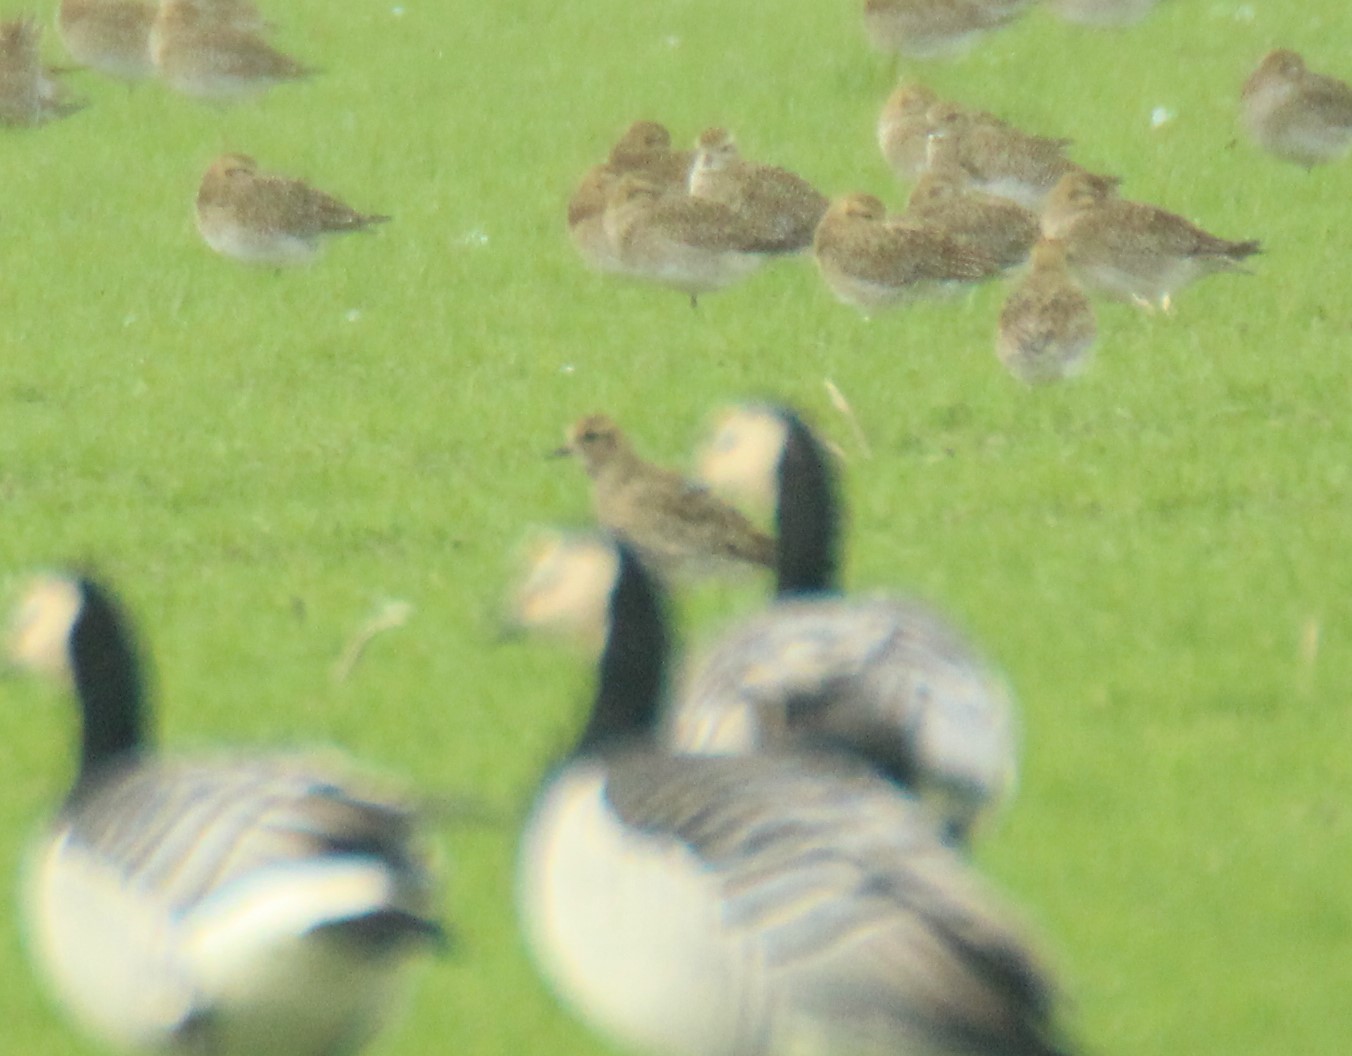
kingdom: Animalia
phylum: Chordata
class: Aves
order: Charadriiformes
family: Charadriidae
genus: Pluvialis
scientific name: Pluvialis apricaria
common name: European golden plover
